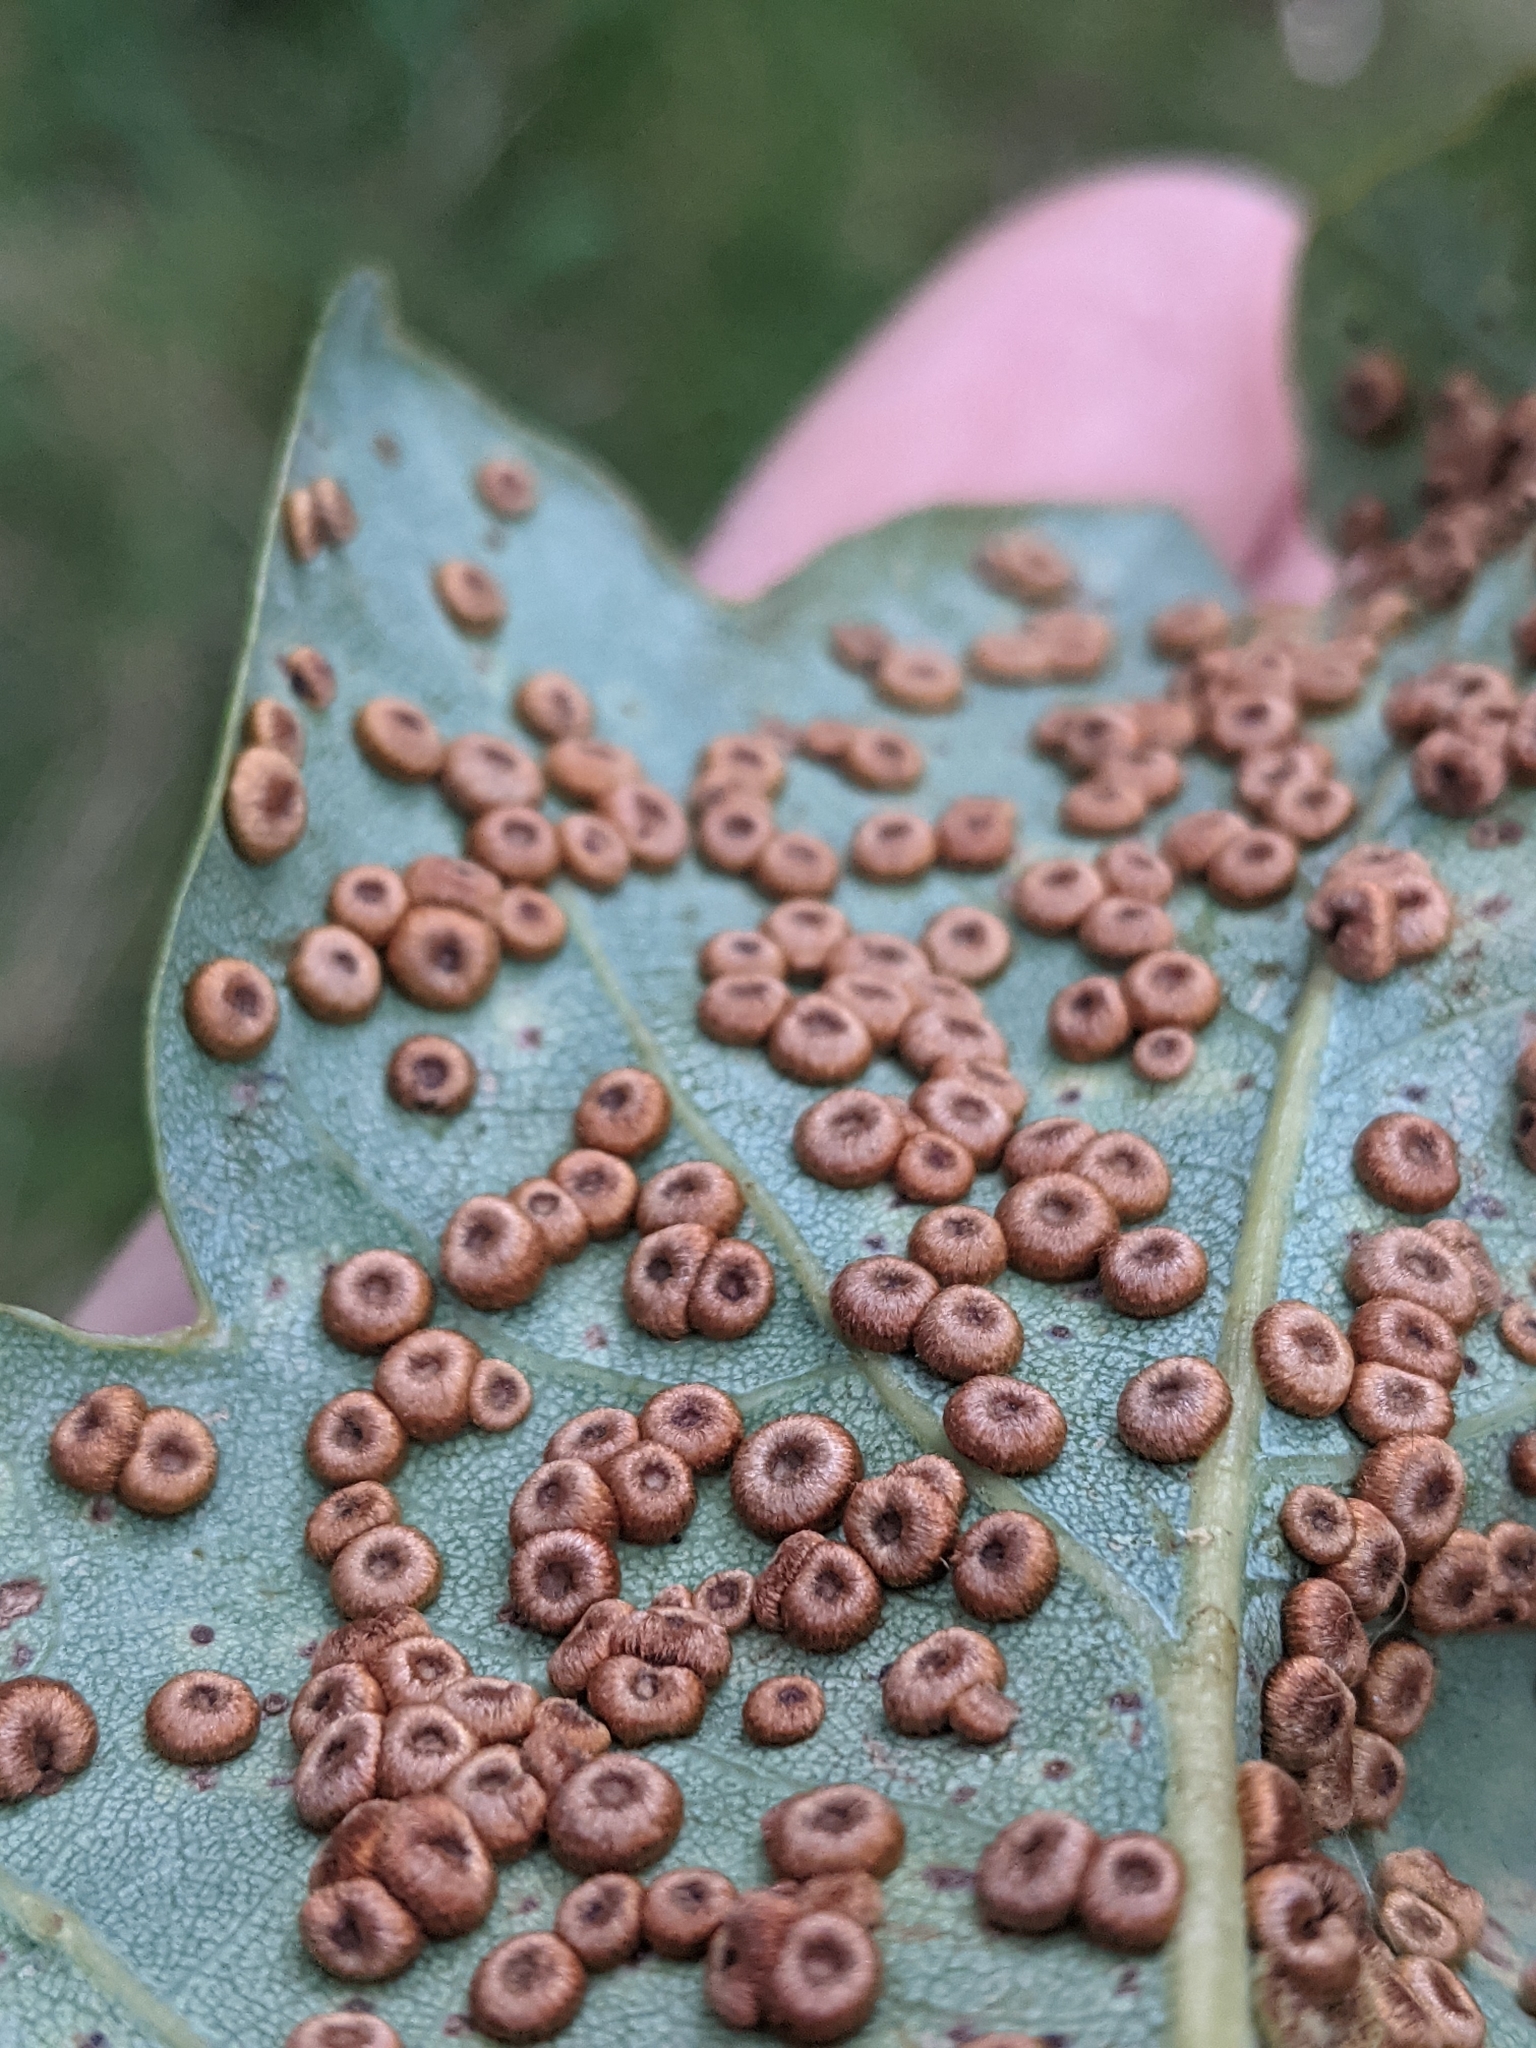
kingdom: Animalia
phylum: Arthropoda
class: Insecta
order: Hymenoptera
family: Cynipidae
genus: Neuroterus
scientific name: Neuroterus numismalis
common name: Silk-button spangle gall
